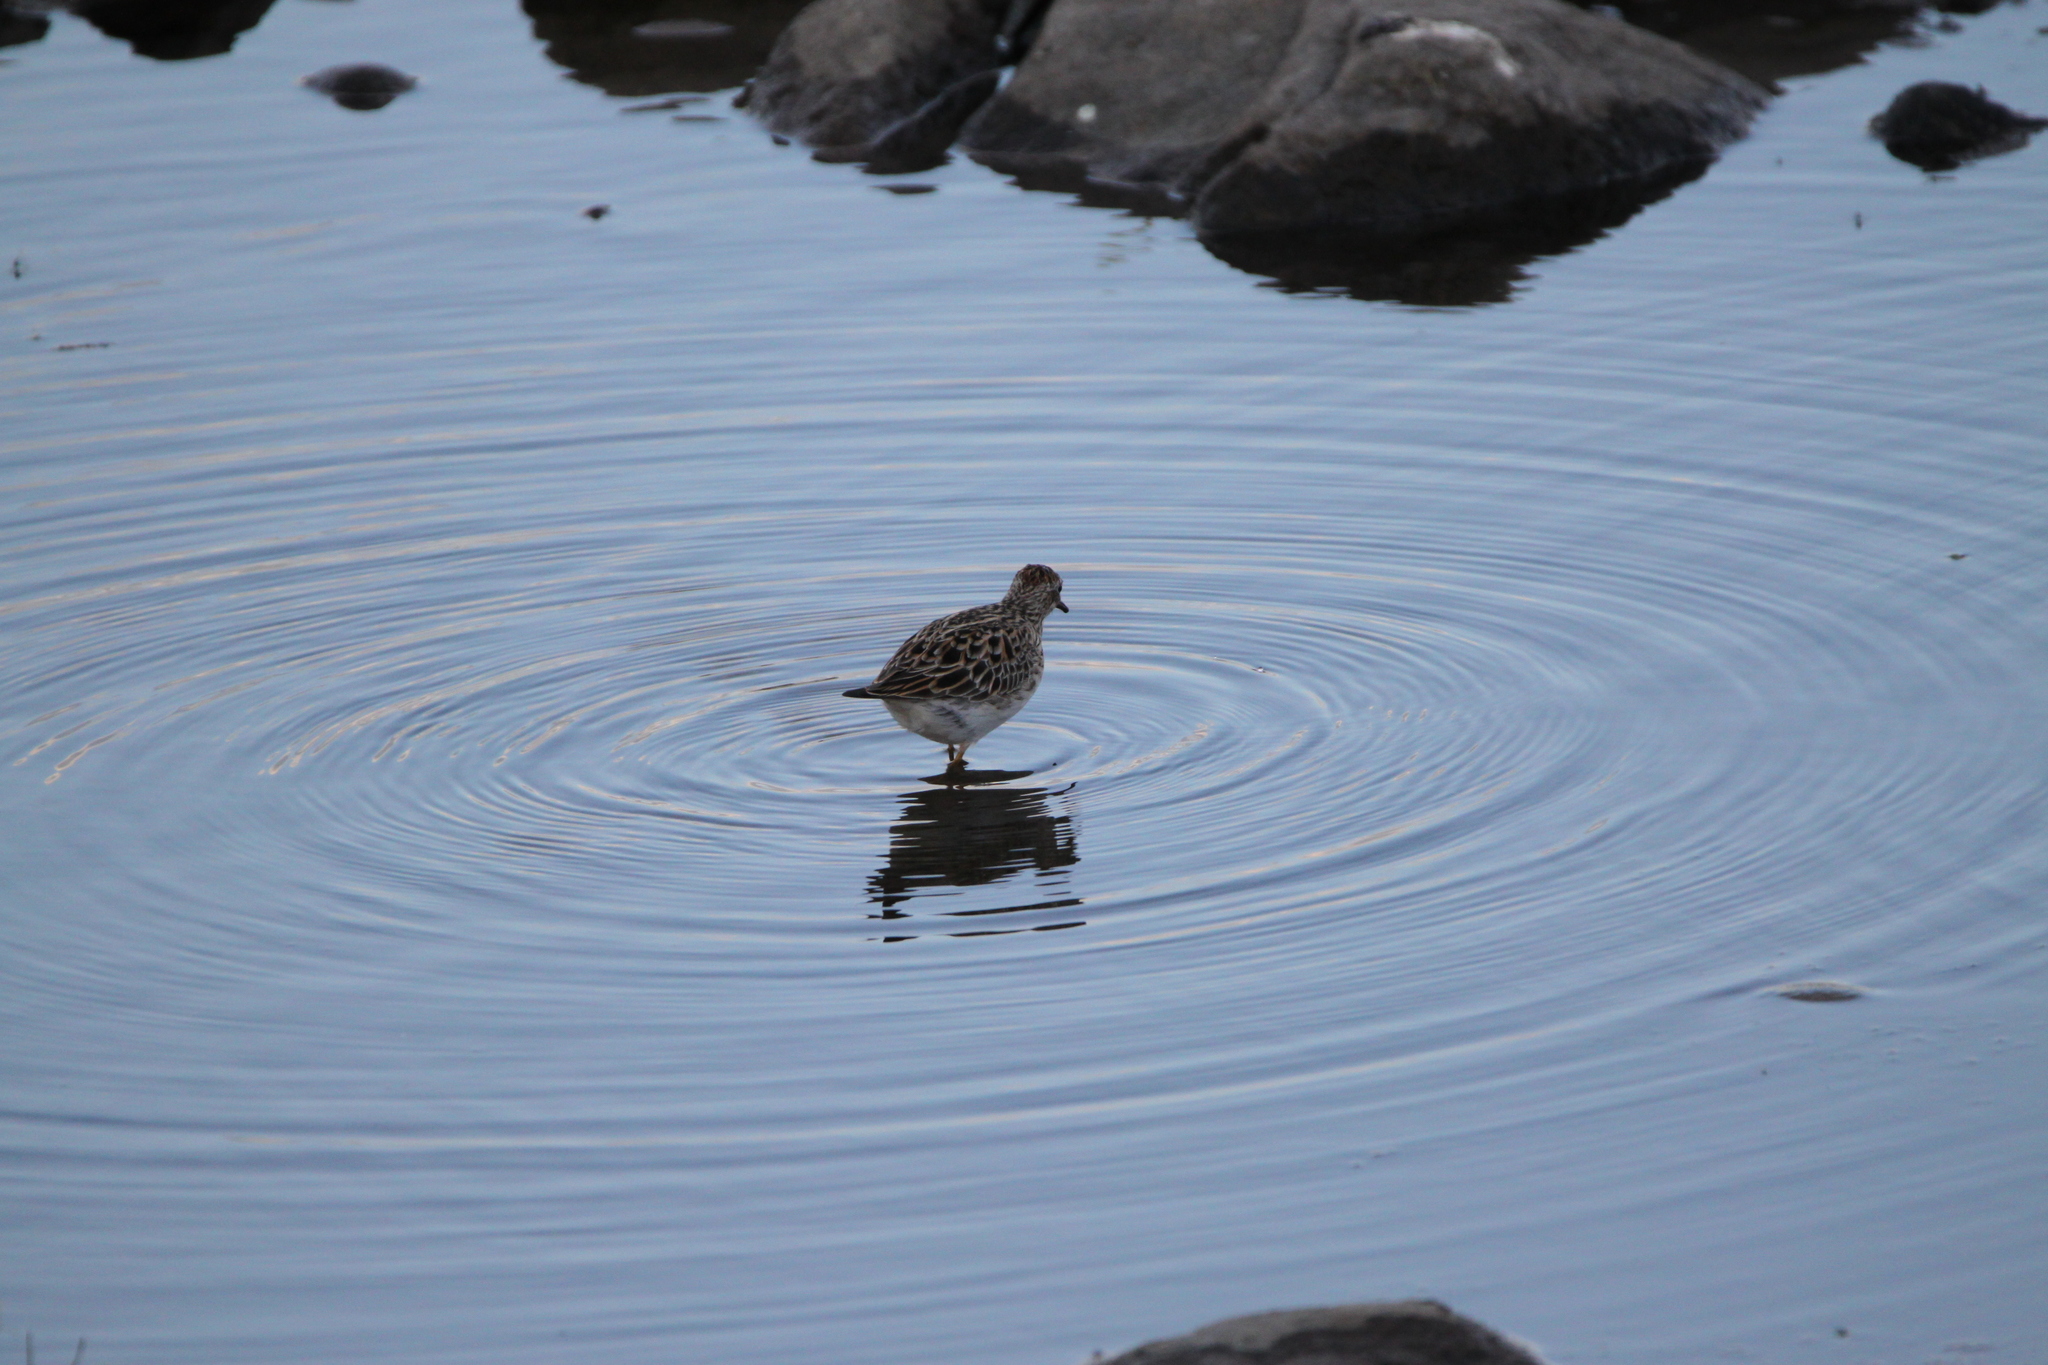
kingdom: Animalia
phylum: Chordata
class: Aves
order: Charadriiformes
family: Scolopacidae
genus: Calidris
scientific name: Calidris melanotos
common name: Pectoral sandpiper
